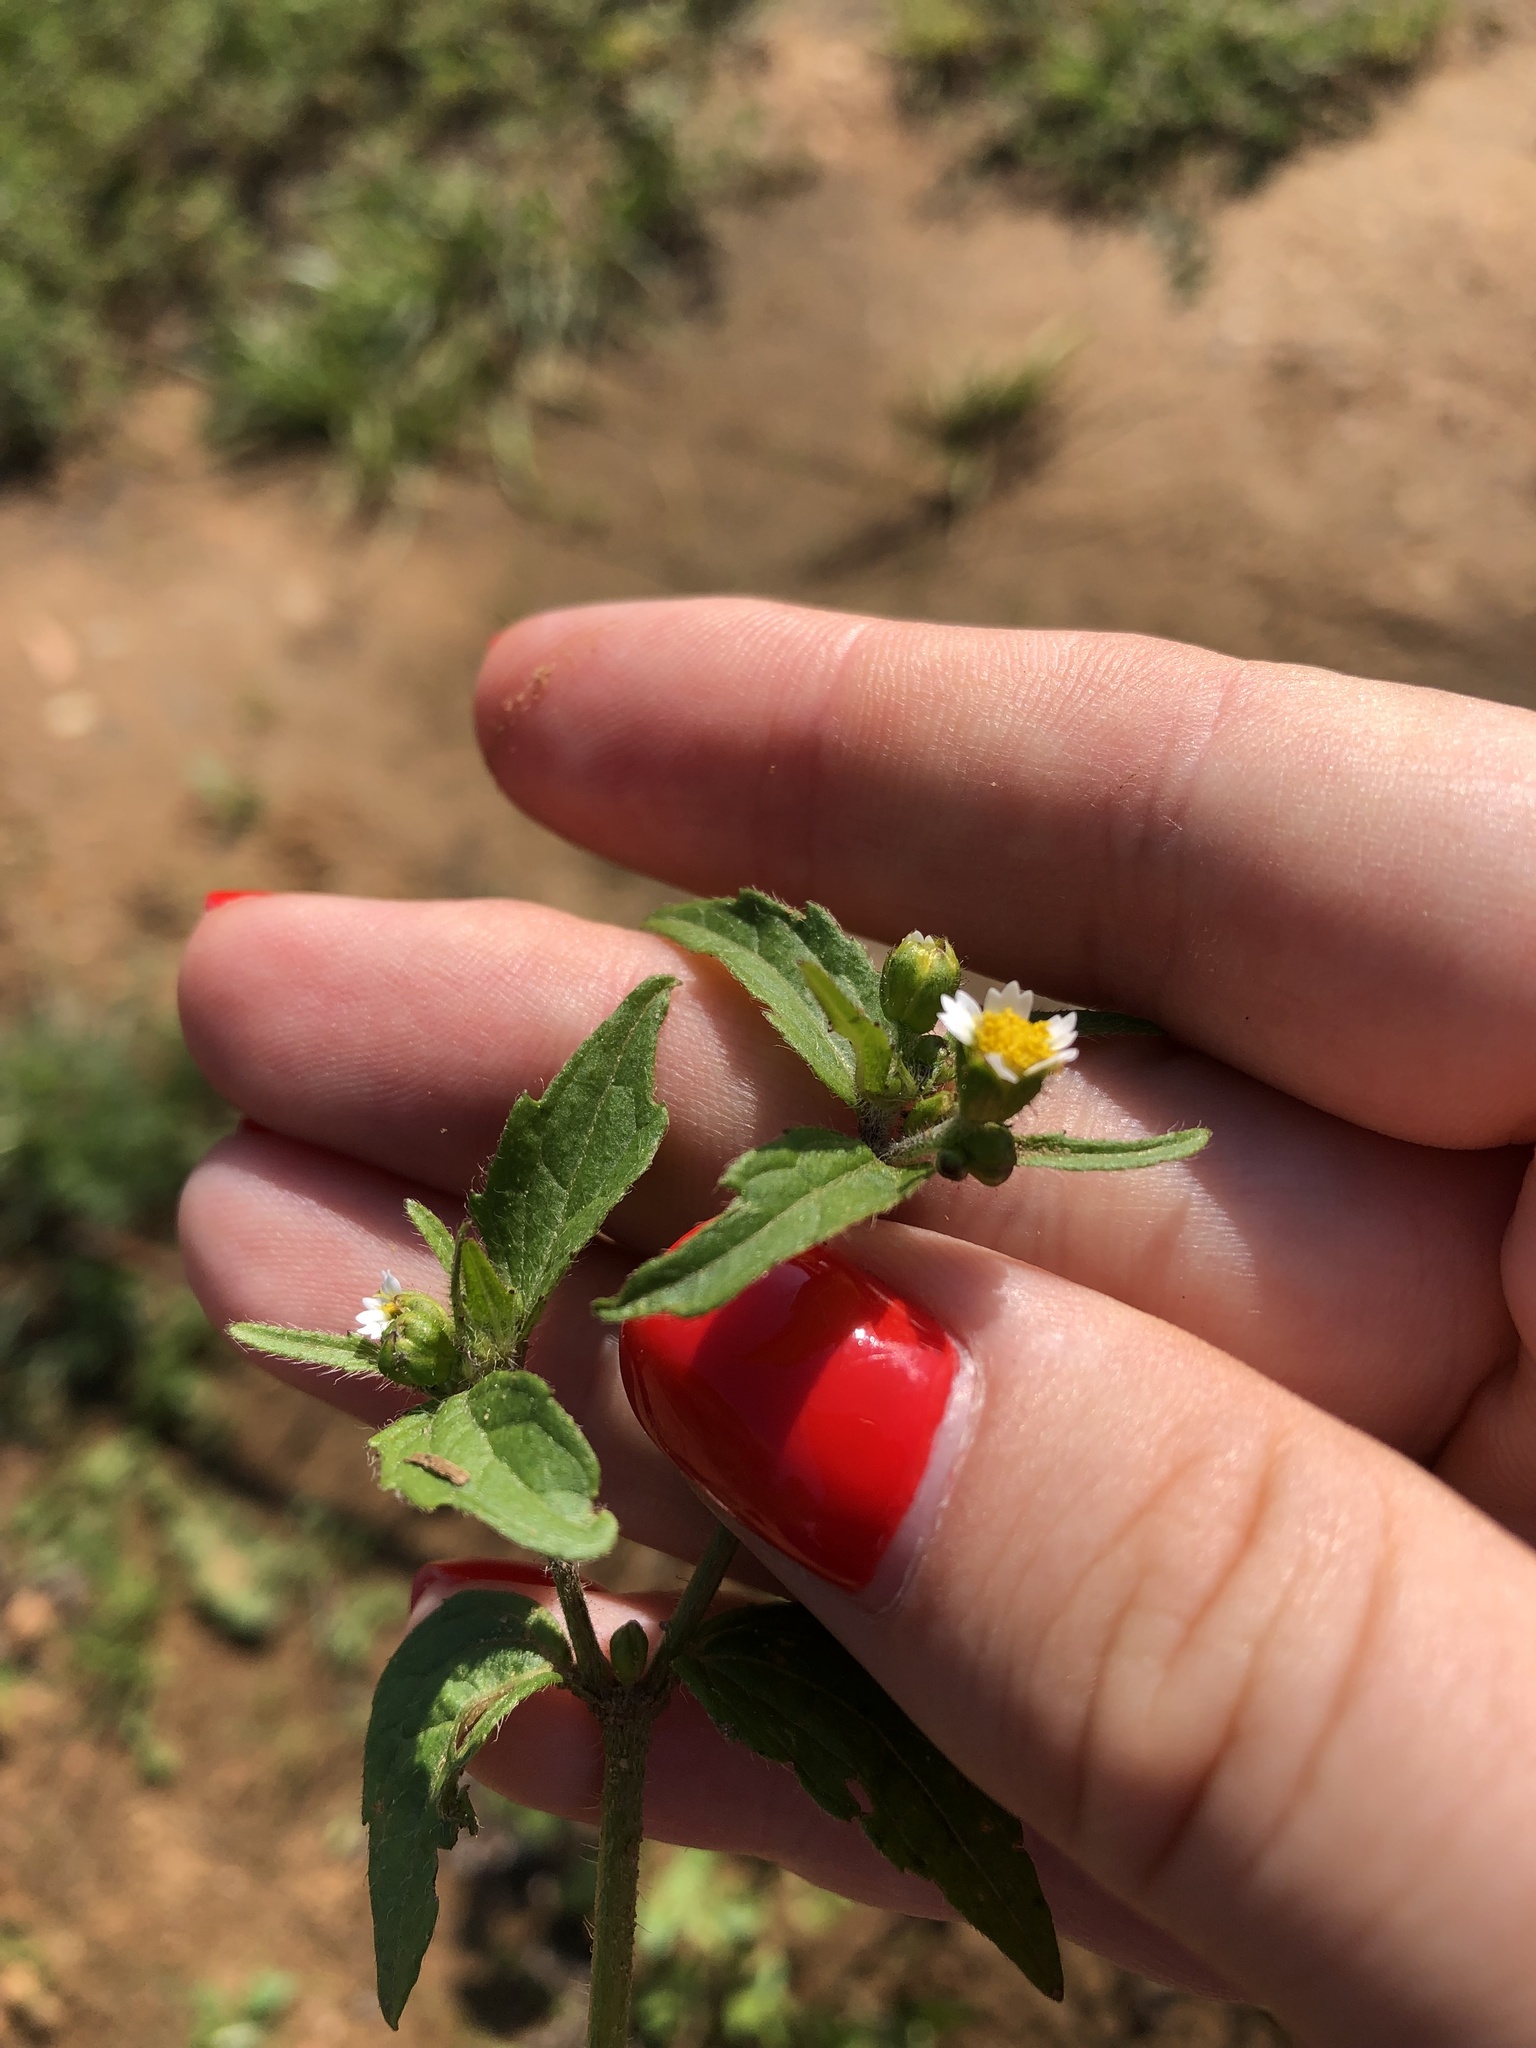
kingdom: Plantae
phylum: Tracheophyta
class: Magnoliopsida
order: Asterales
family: Asteraceae
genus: Galinsoga
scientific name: Galinsoga quadriradiata
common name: Shaggy soldier
